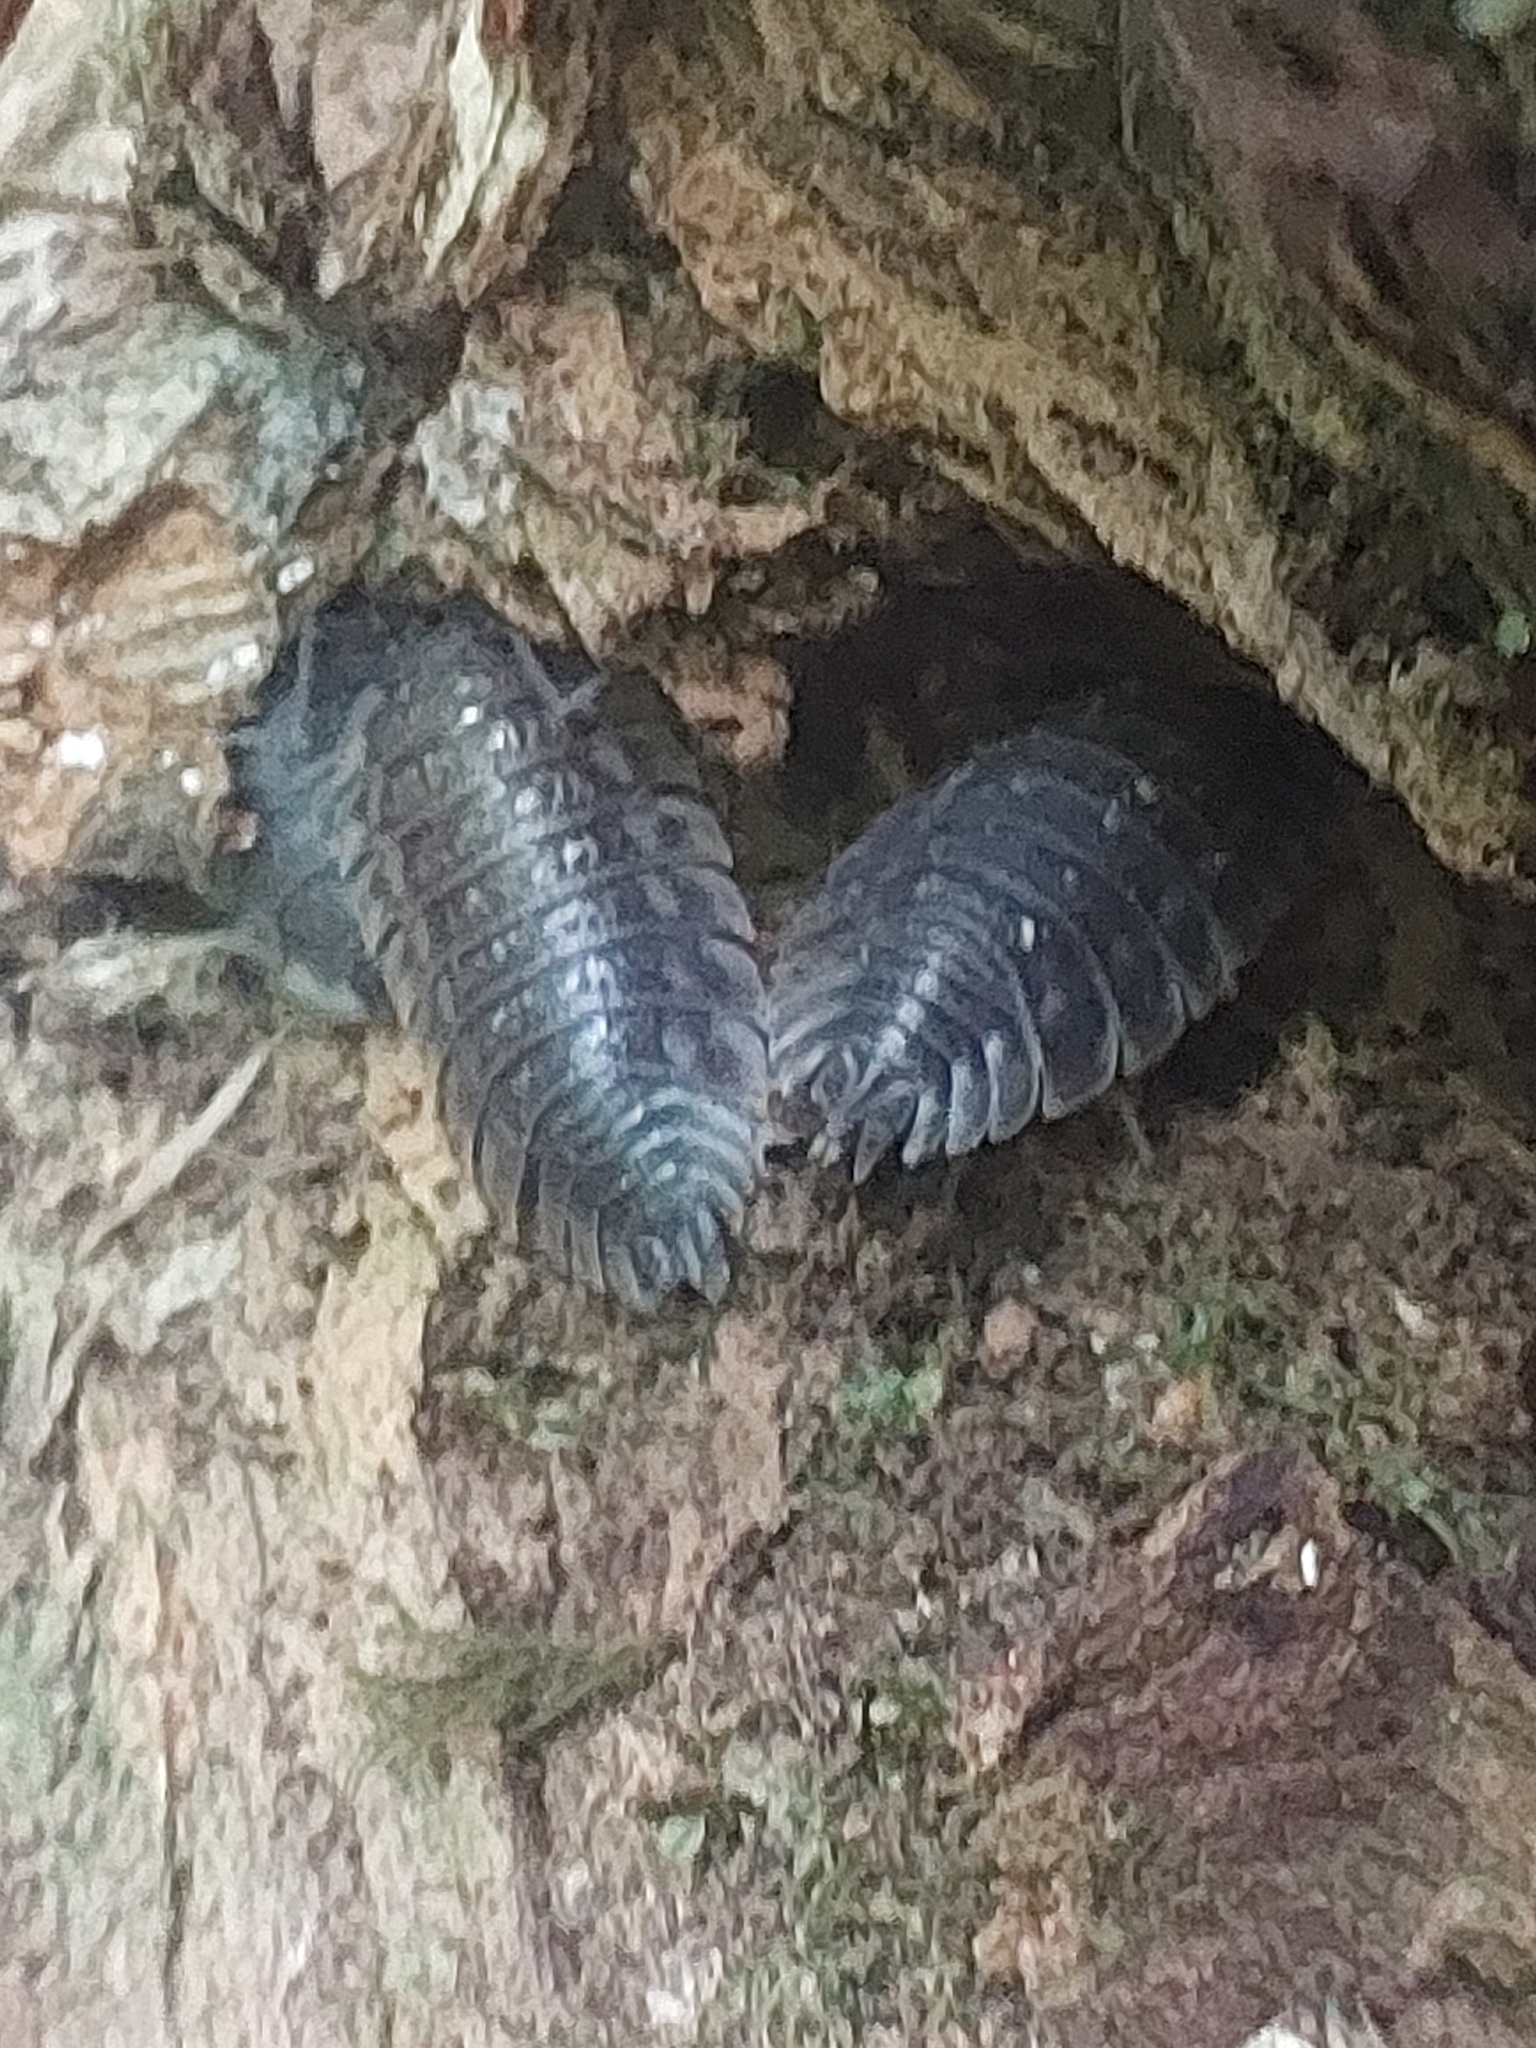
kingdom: Animalia
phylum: Arthropoda
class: Malacostraca
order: Isopoda
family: Oniscidae
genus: Oniscus
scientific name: Oniscus asellus
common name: Common shiny woodlouse
